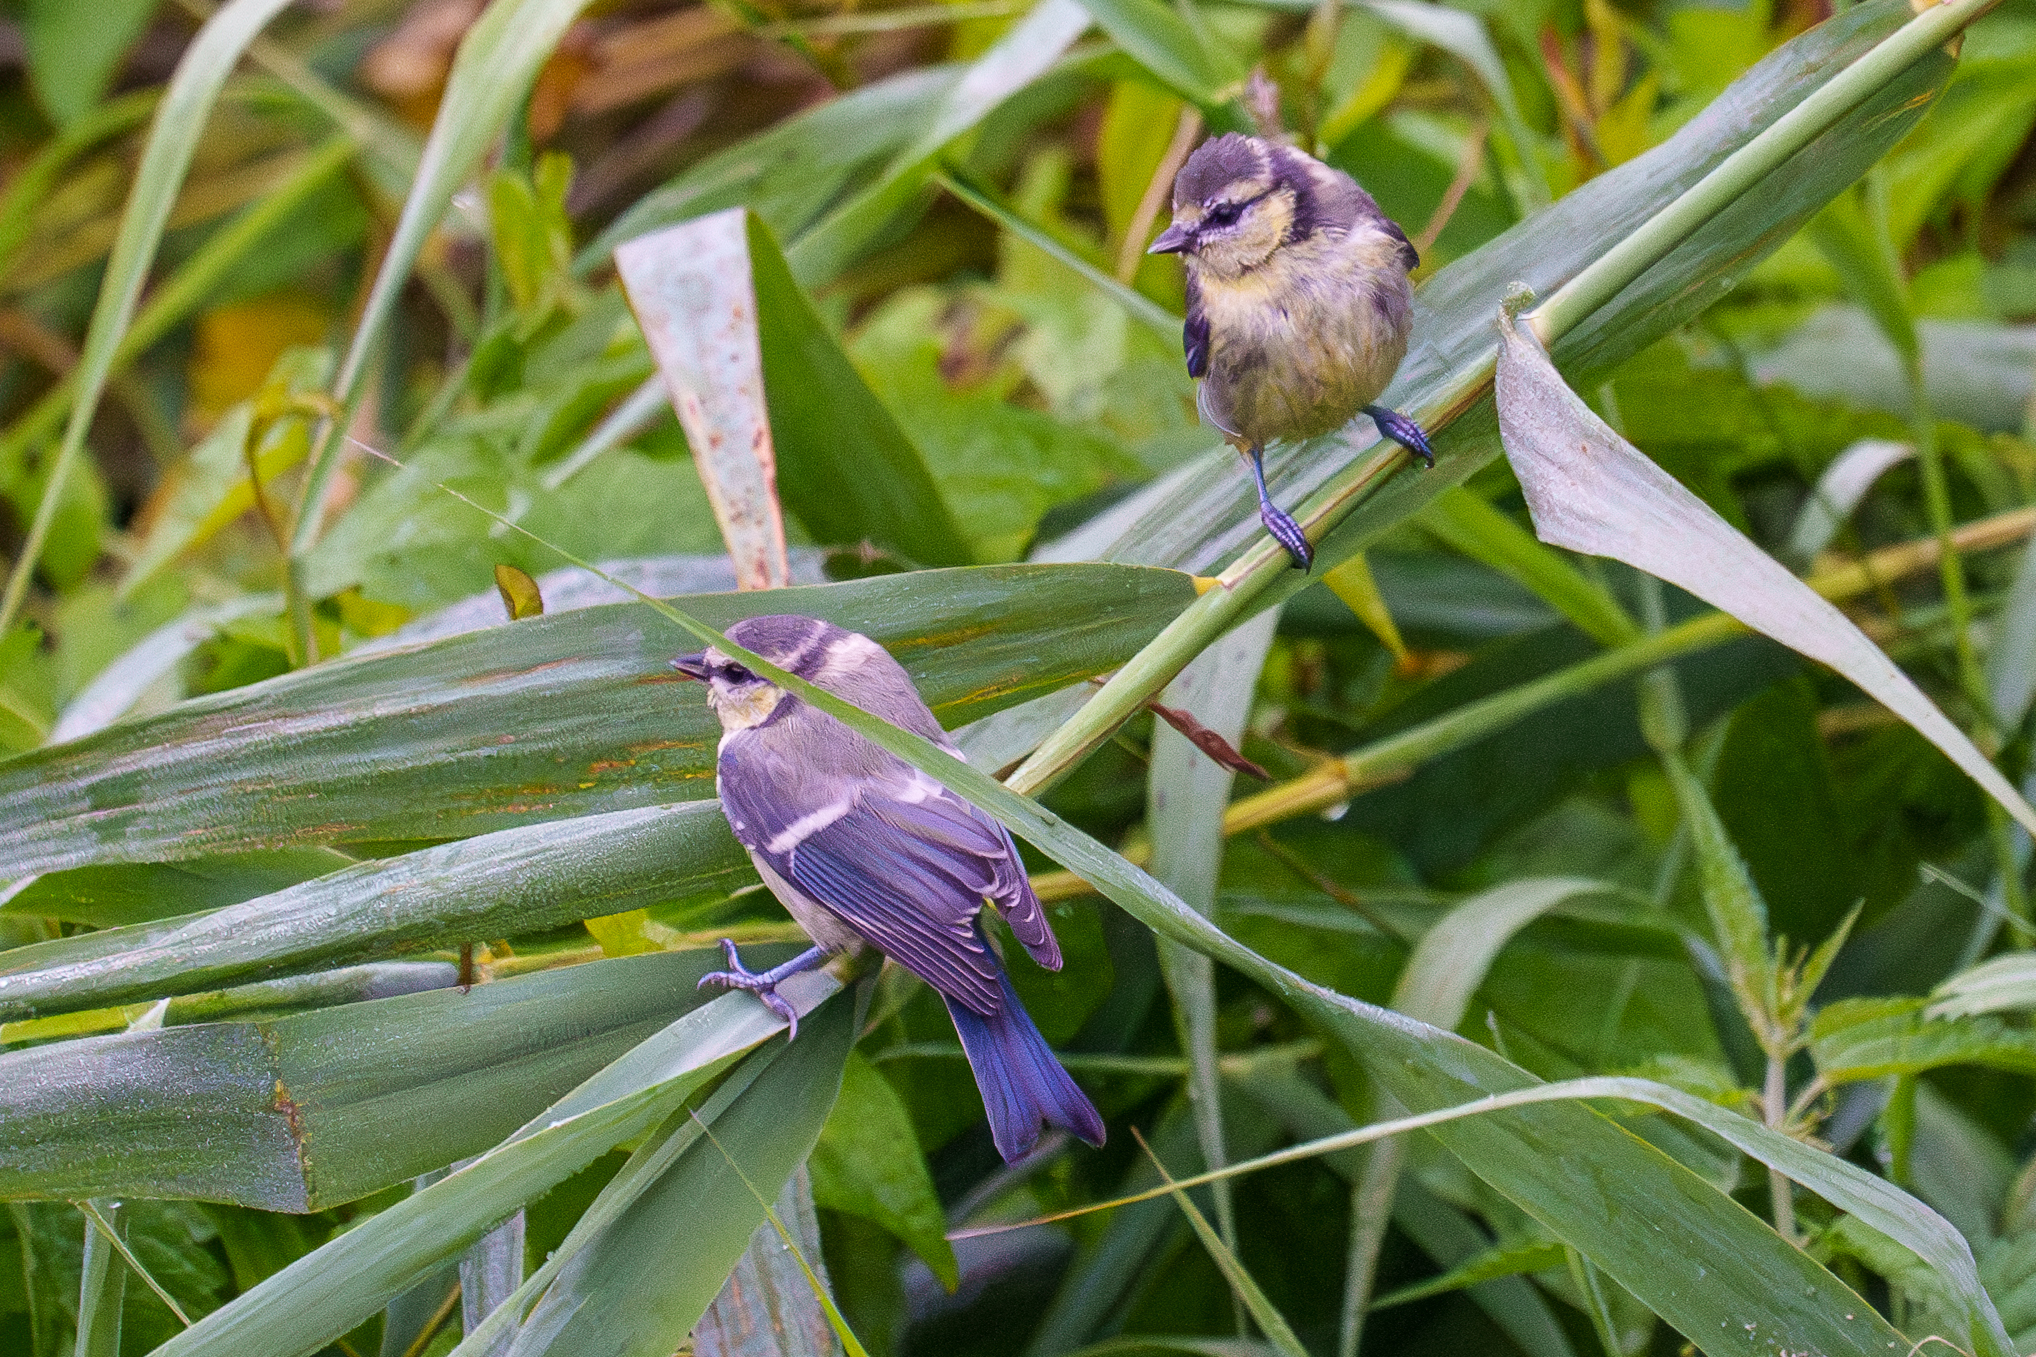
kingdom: Animalia
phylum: Chordata
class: Aves
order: Passeriformes
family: Paridae
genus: Cyanistes
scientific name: Cyanistes caeruleus
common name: Eurasian blue tit
